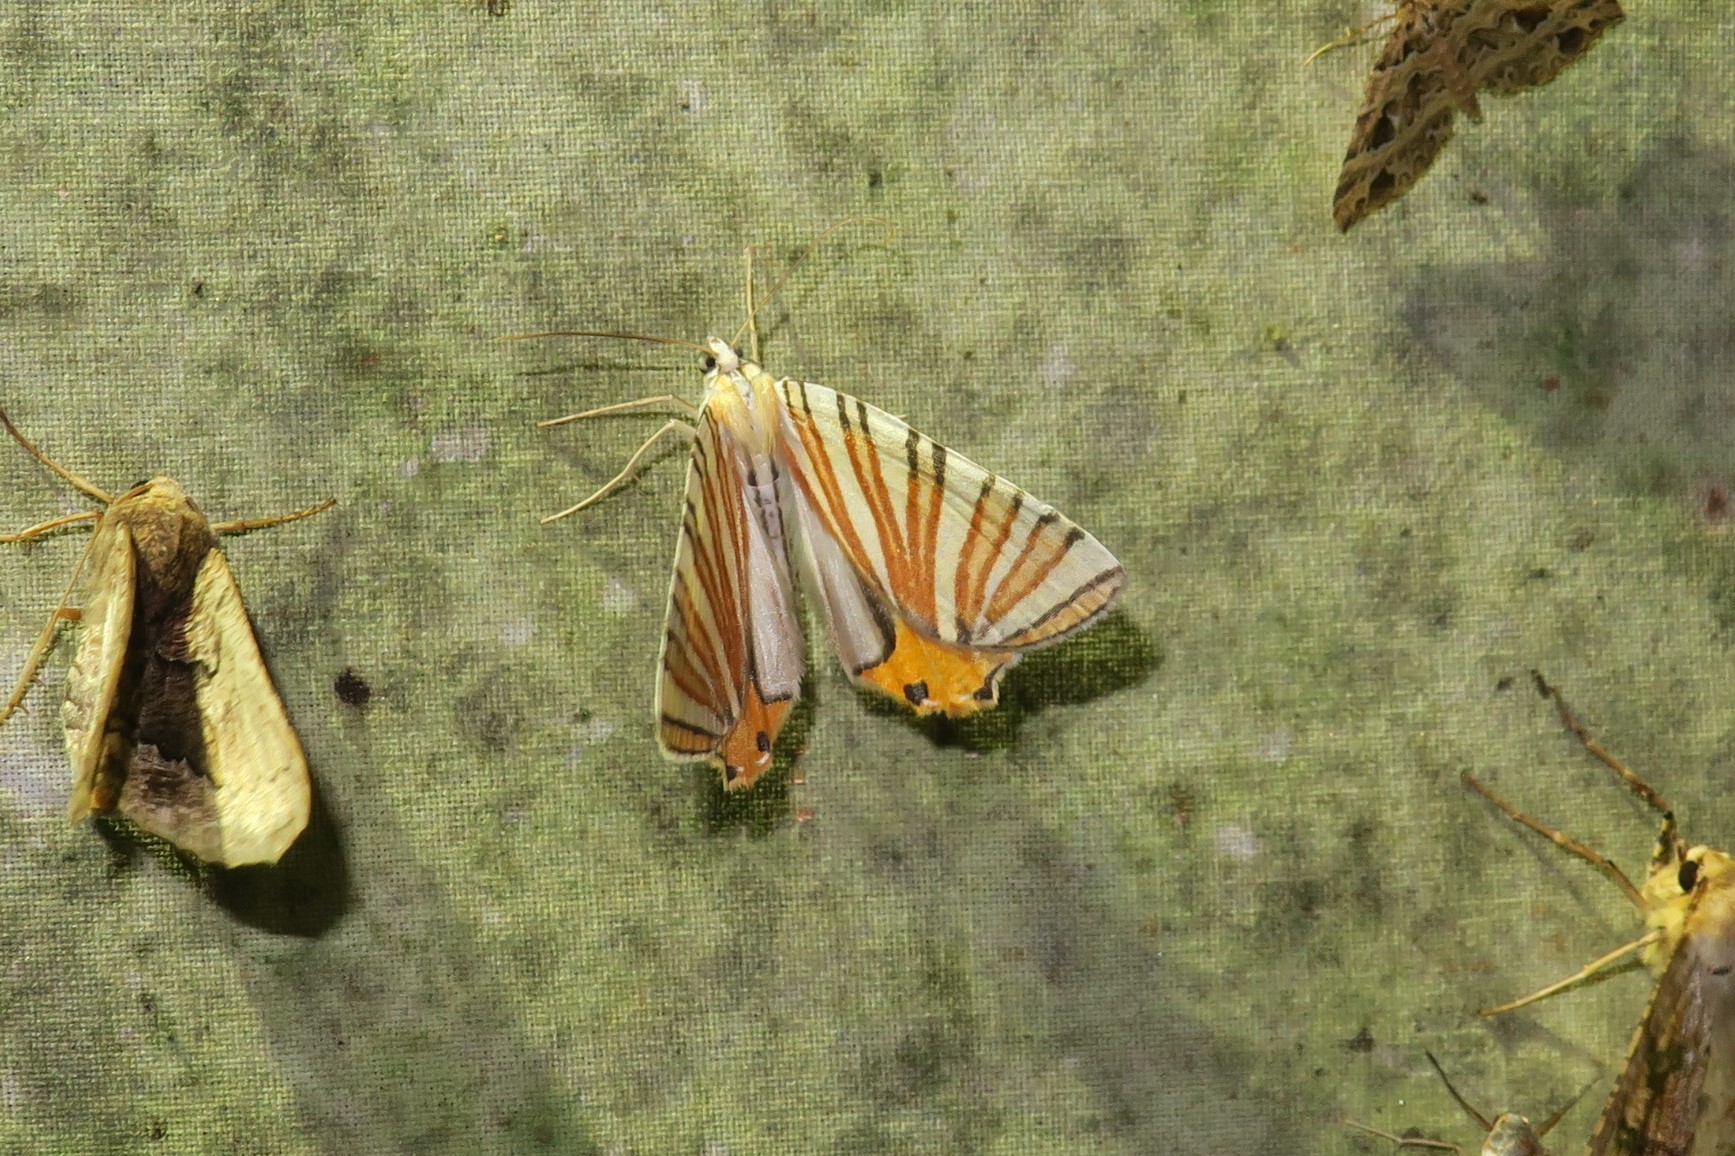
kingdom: Animalia
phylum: Arthropoda
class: Insecta
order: Lepidoptera
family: Geometridae
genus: Pityeja
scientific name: Pityeja histrionaria
